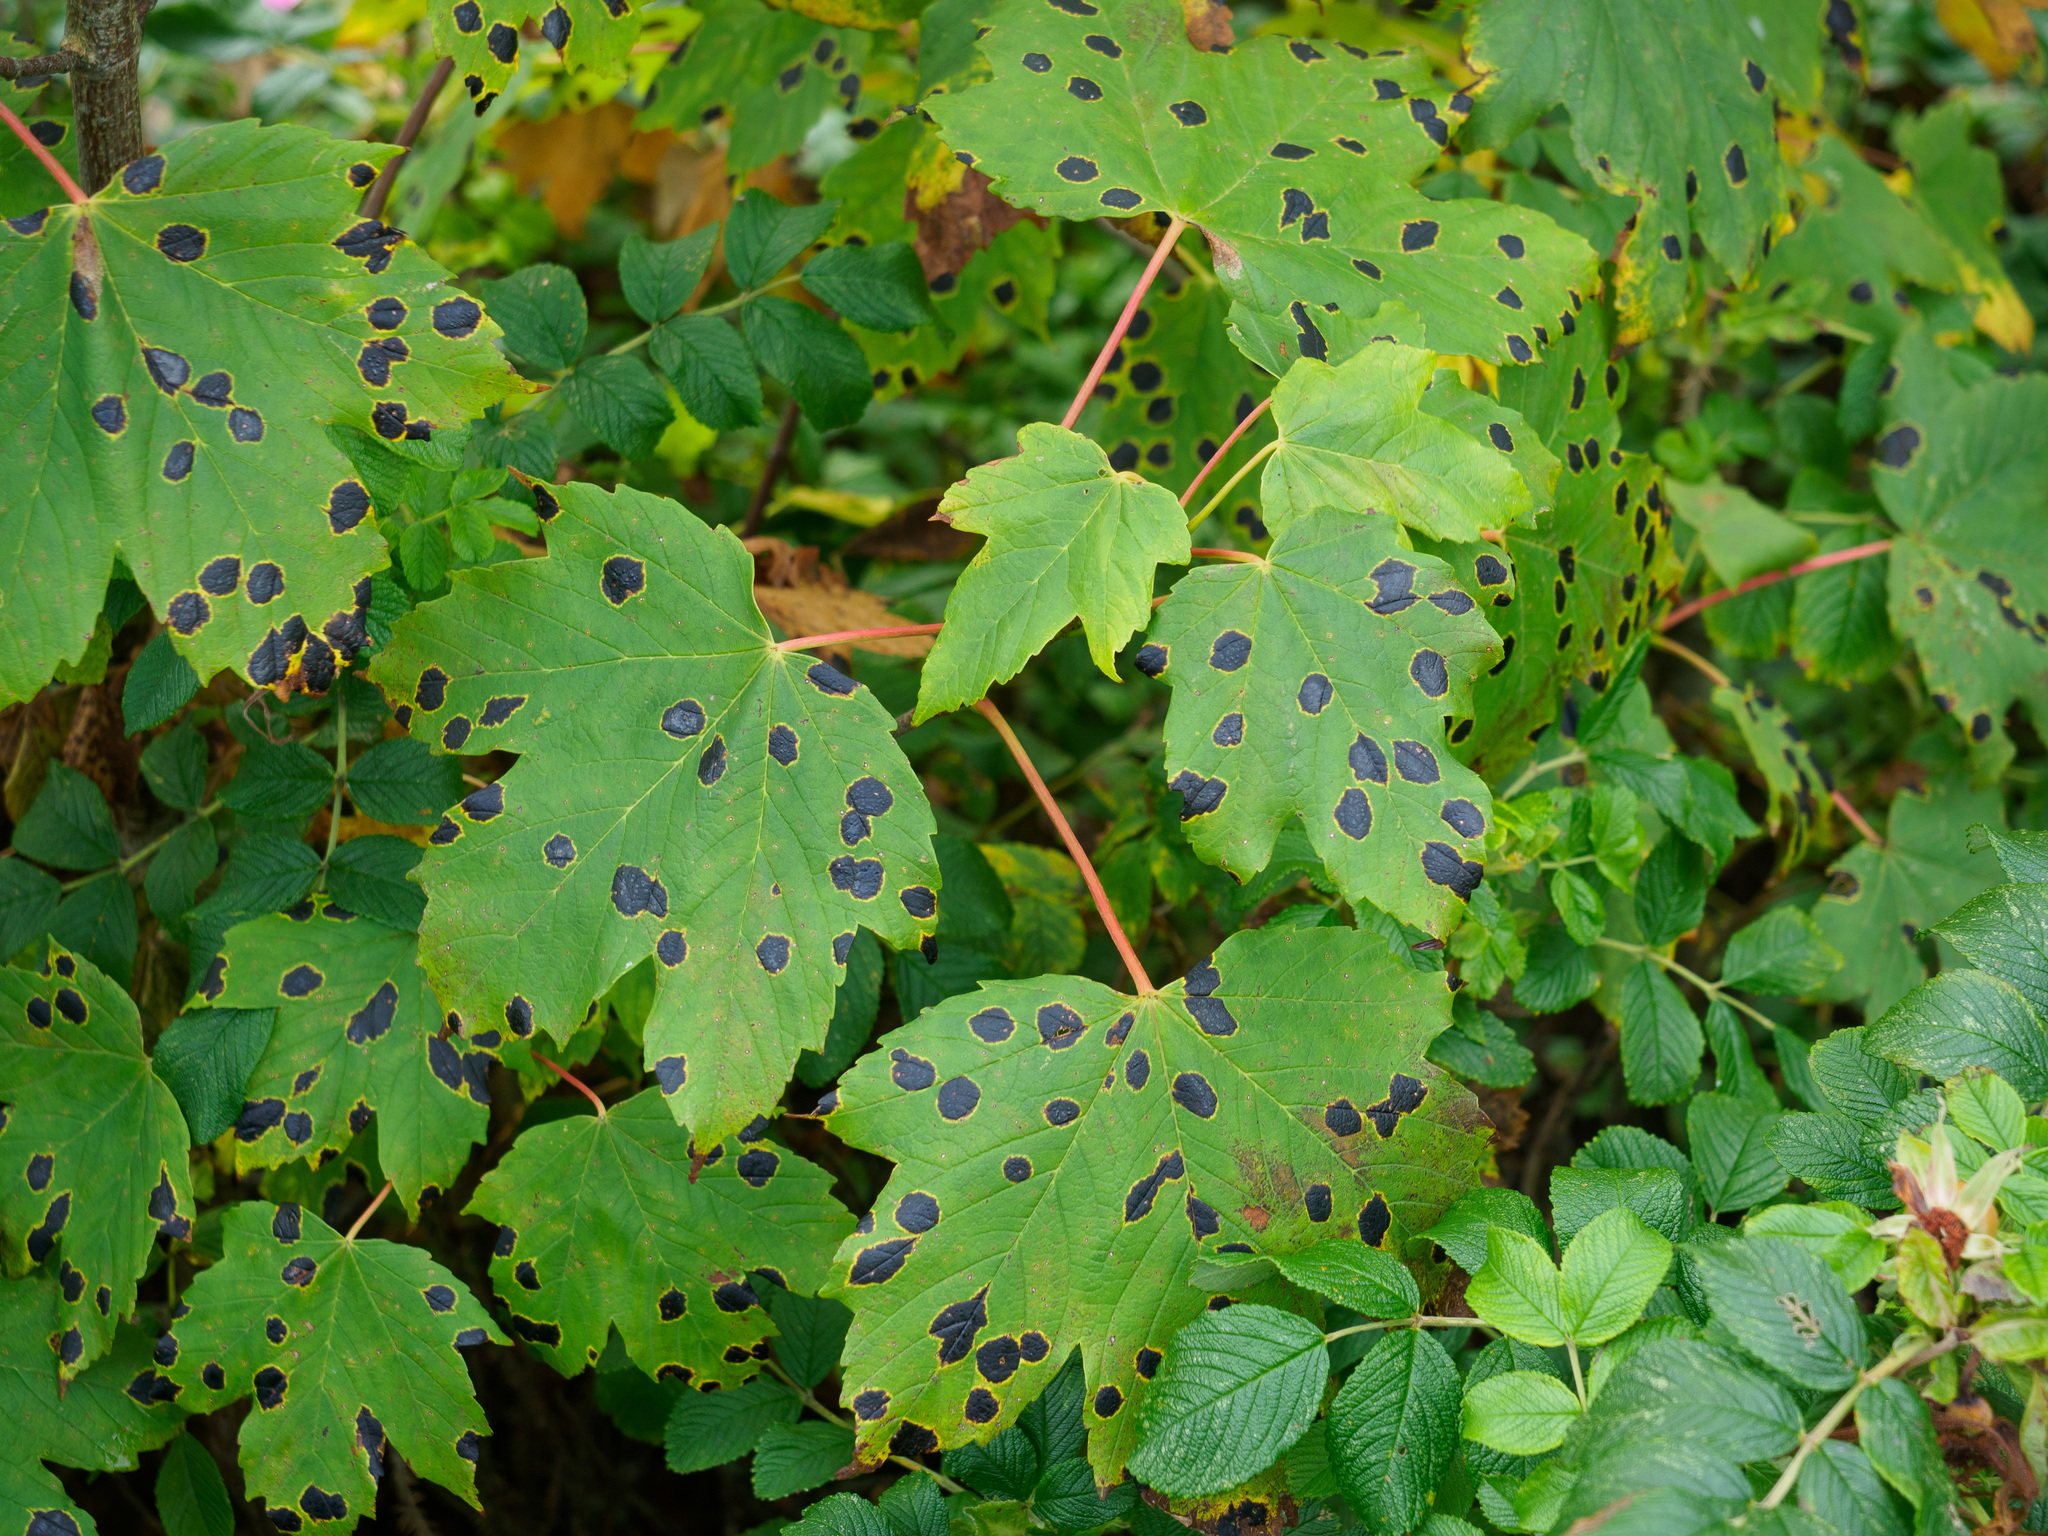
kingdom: Fungi
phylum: Ascomycota
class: Leotiomycetes
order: Rhytismatales
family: Rhytismataceae
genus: Rhytisma
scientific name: Rhytisma acerinum
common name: European tar spot
